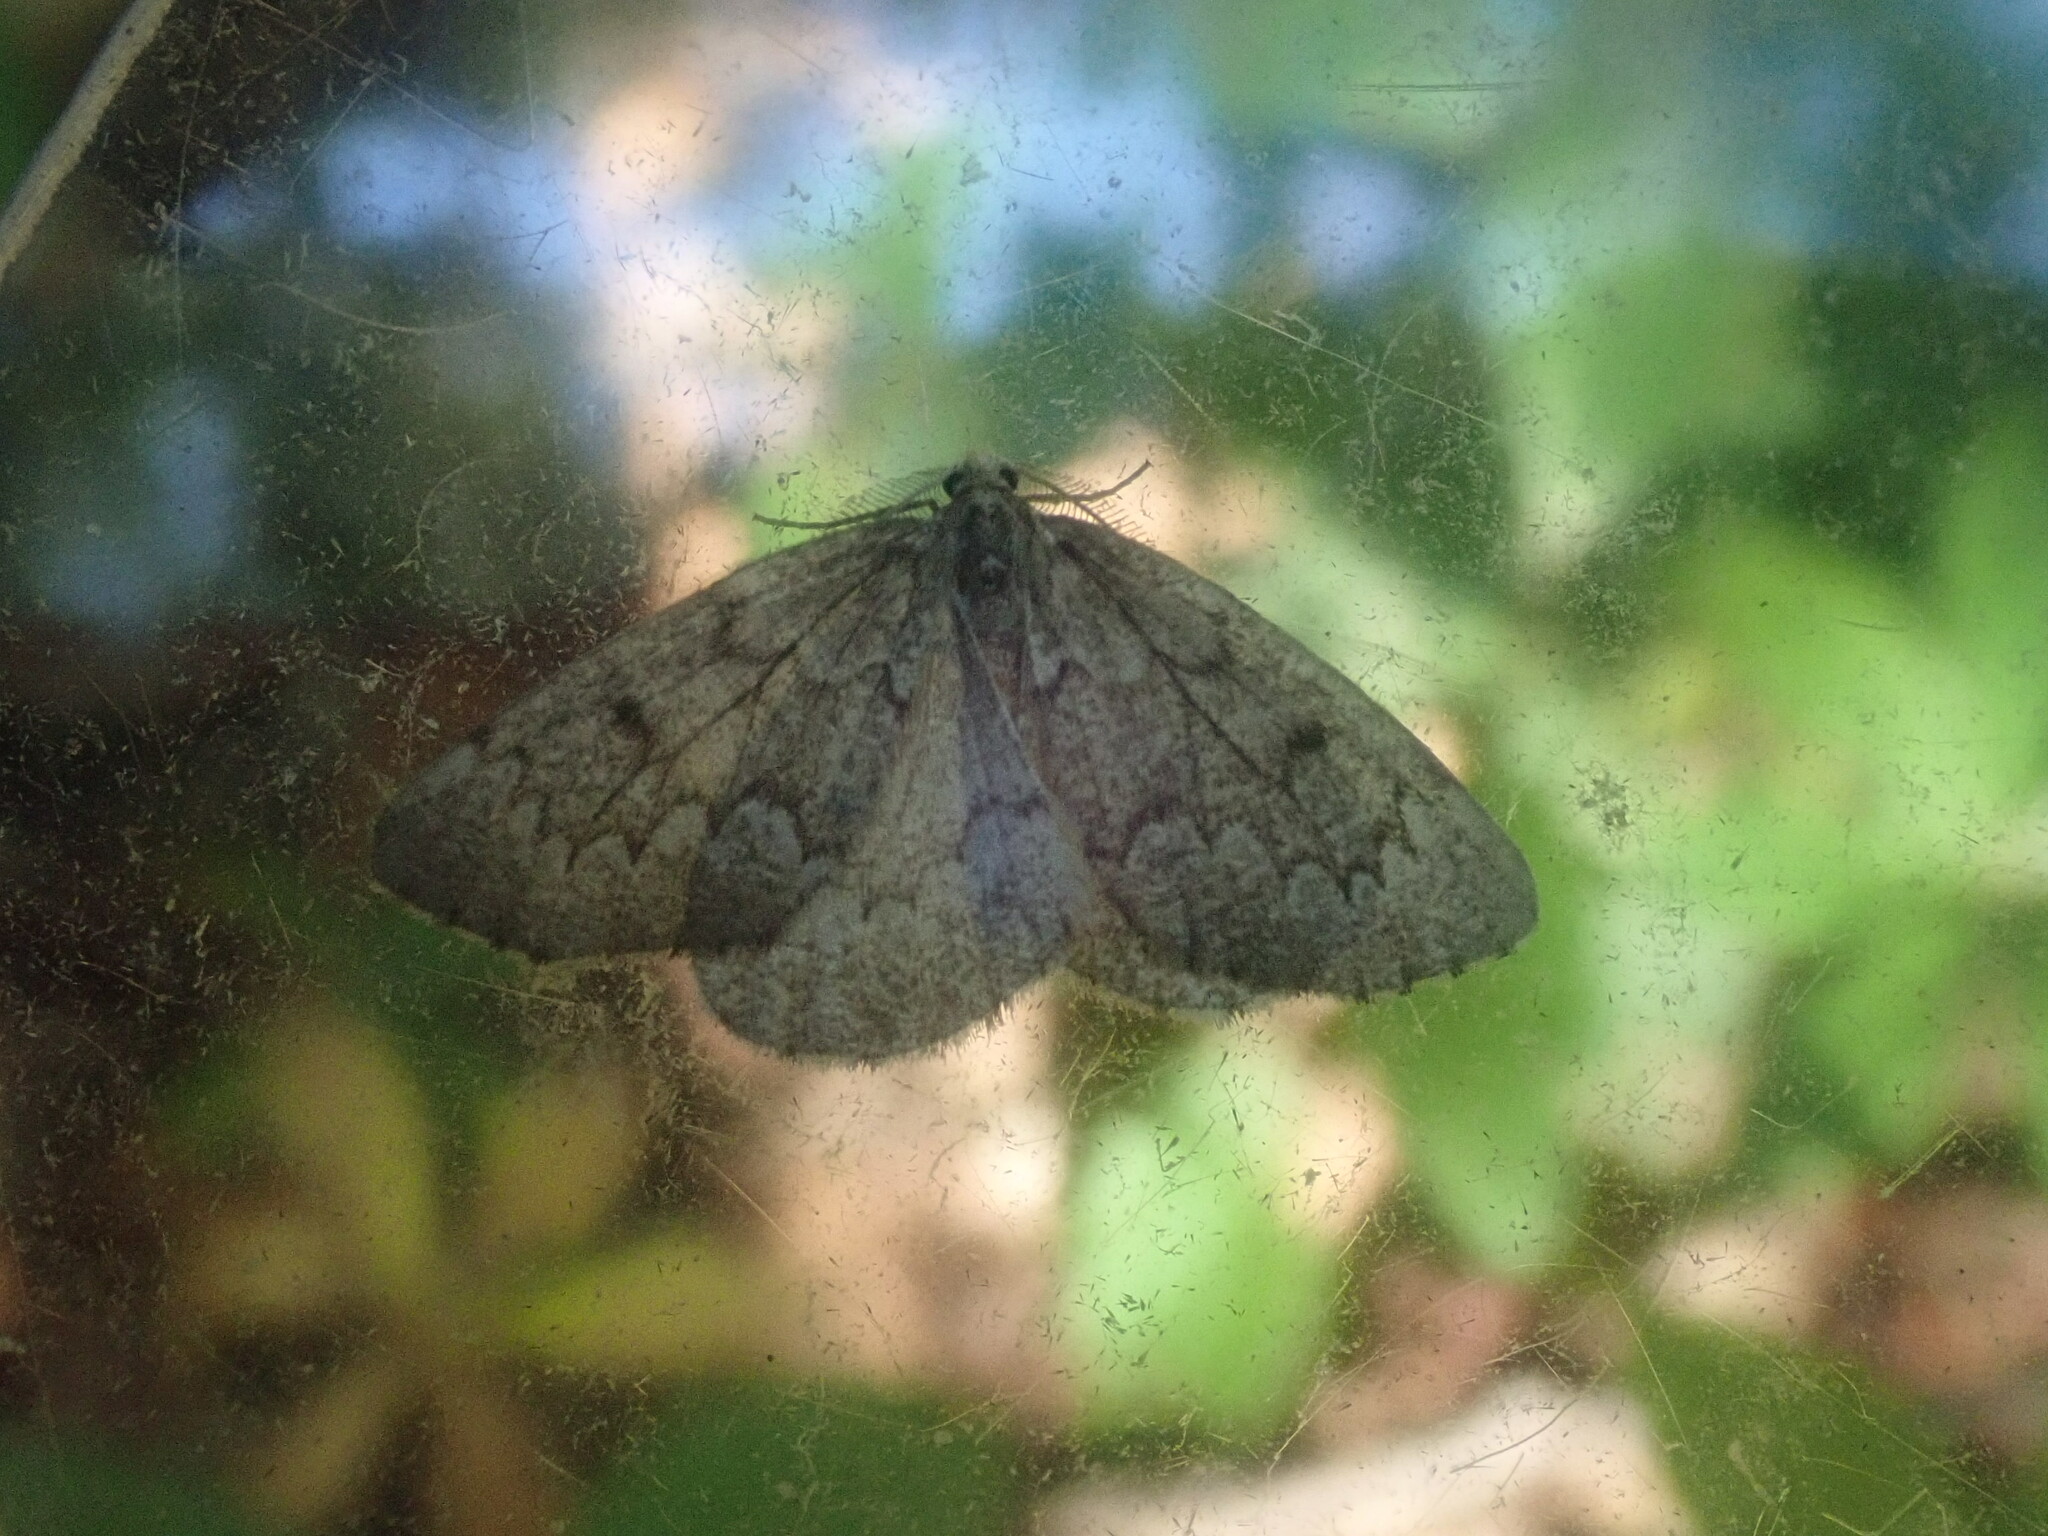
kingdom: Animalia
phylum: Arthropoda
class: Insecta
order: Lepidoptera
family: Geometridae
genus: Nepytia
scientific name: Nepytia canosaria
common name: False hemlock looper
